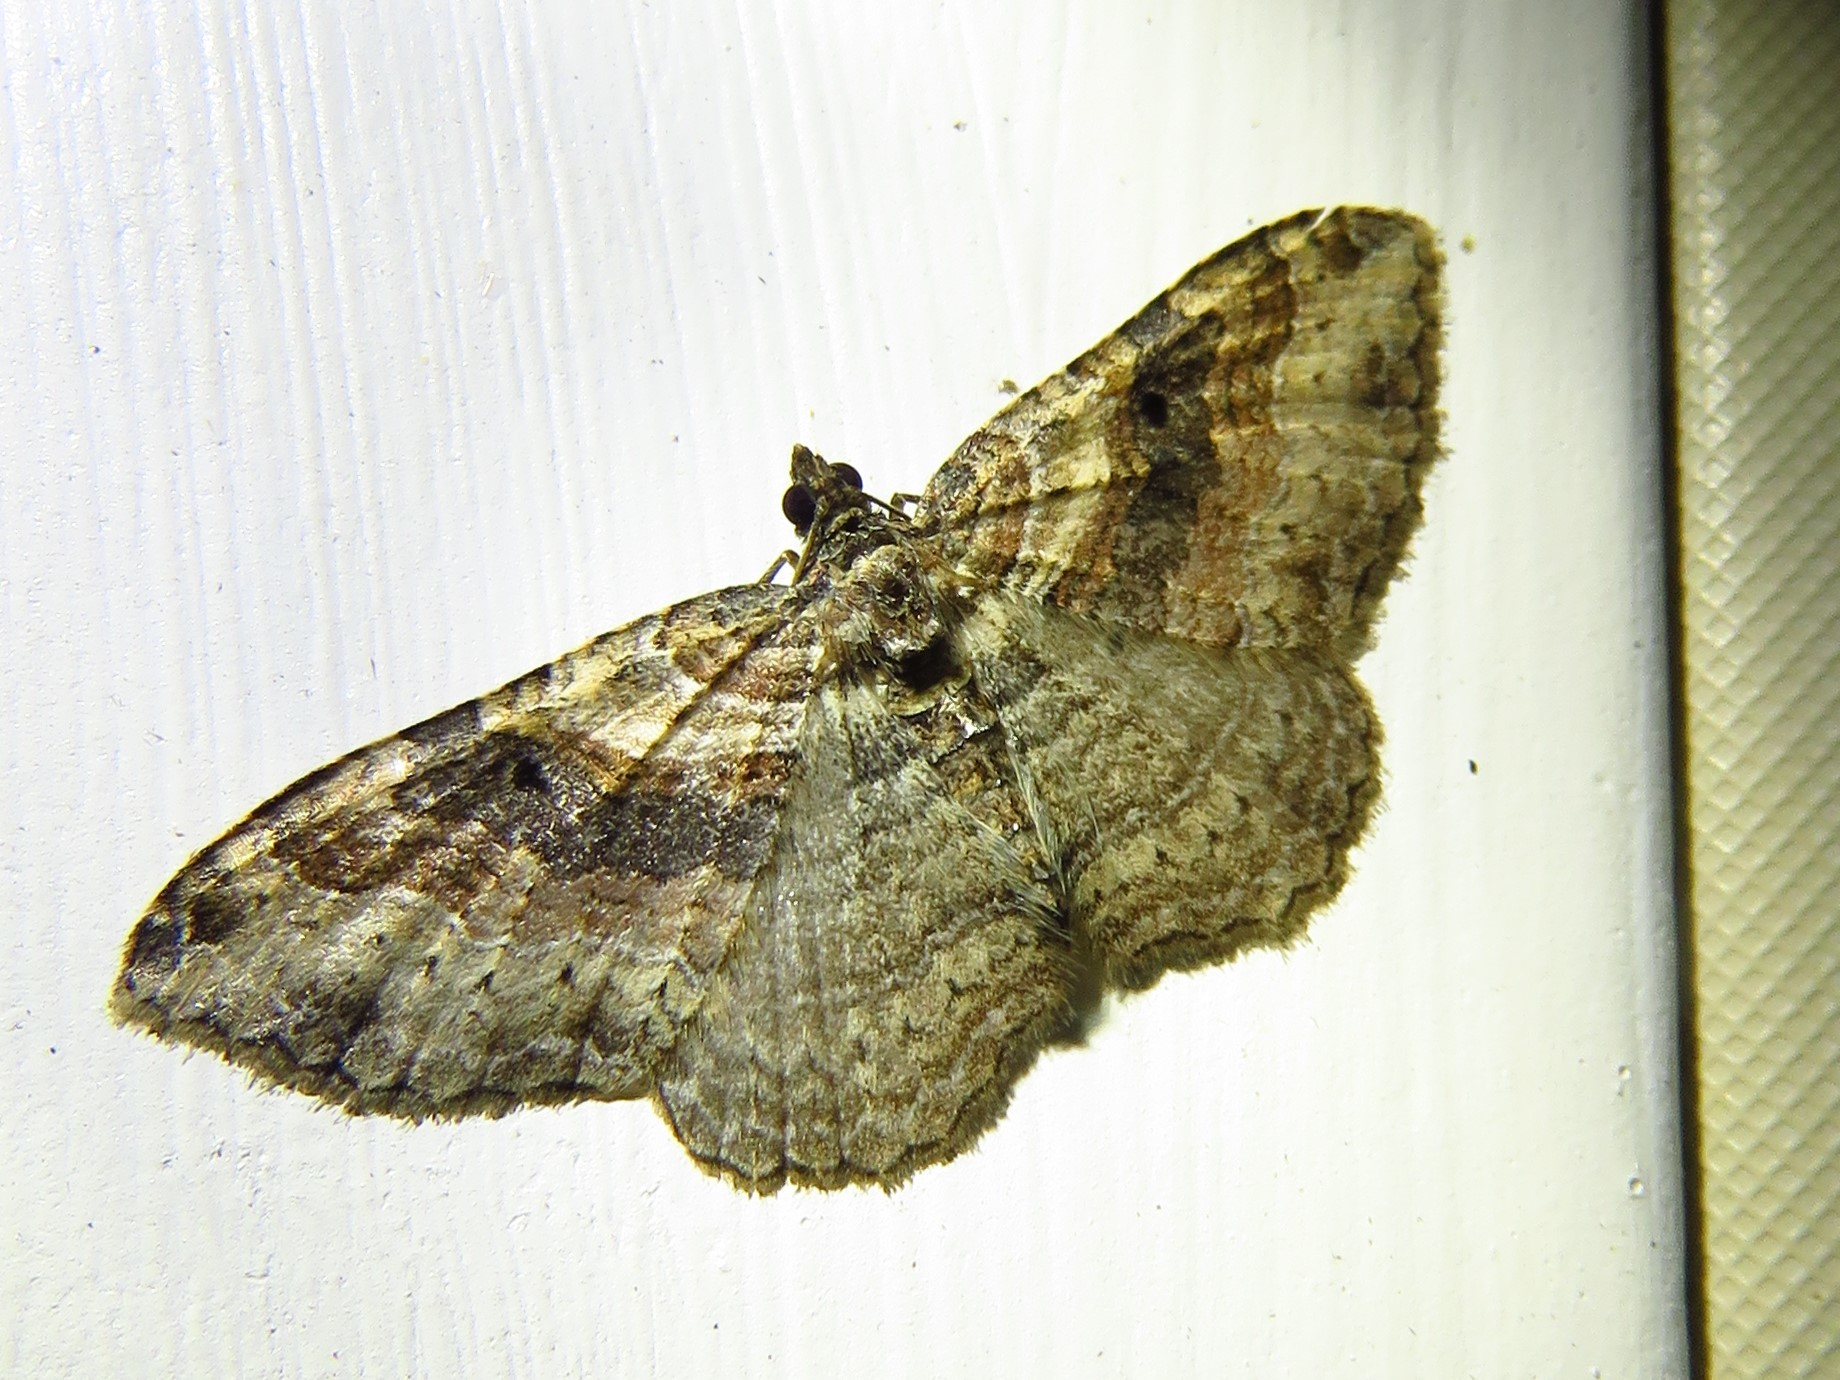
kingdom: Animalia
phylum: Arthropoda
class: Insecta
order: Lepidoptera
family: Geometridae
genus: Costaconvexa
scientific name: Costaconvexa centrostrigaria
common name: Bent-line carpet
